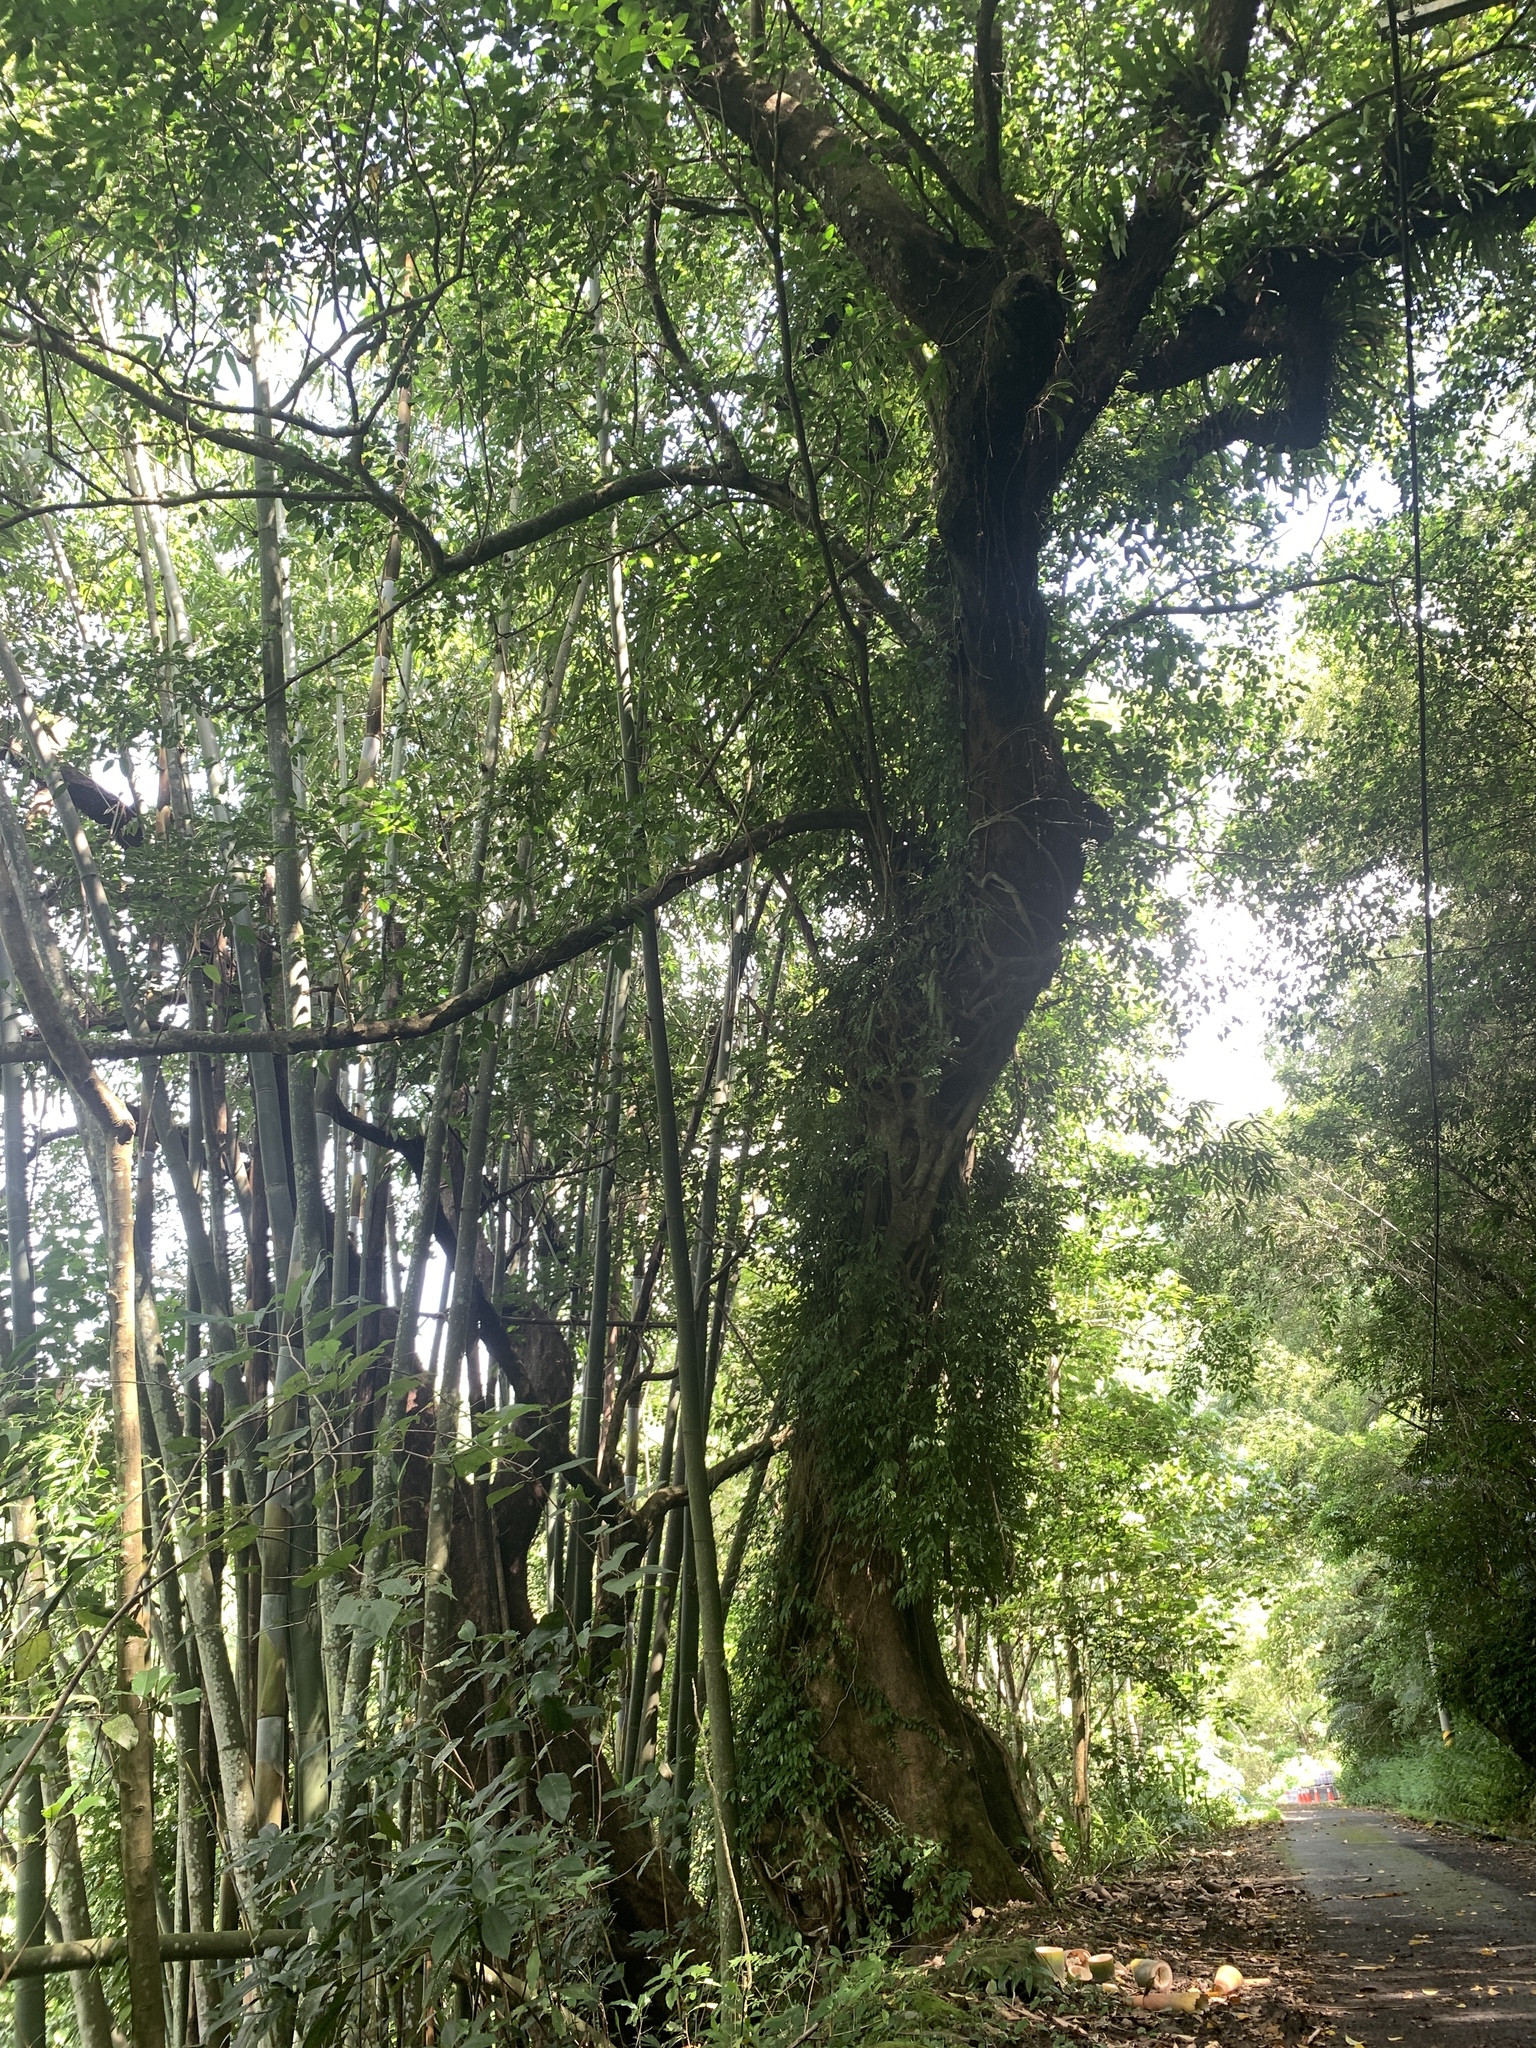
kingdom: Plantae
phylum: Tracheophyta
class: Magnoliopsida
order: Malpighiales
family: Phyllanthaceae
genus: Bischofia
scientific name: Bischofia javanica
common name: Javanese bishopwood
